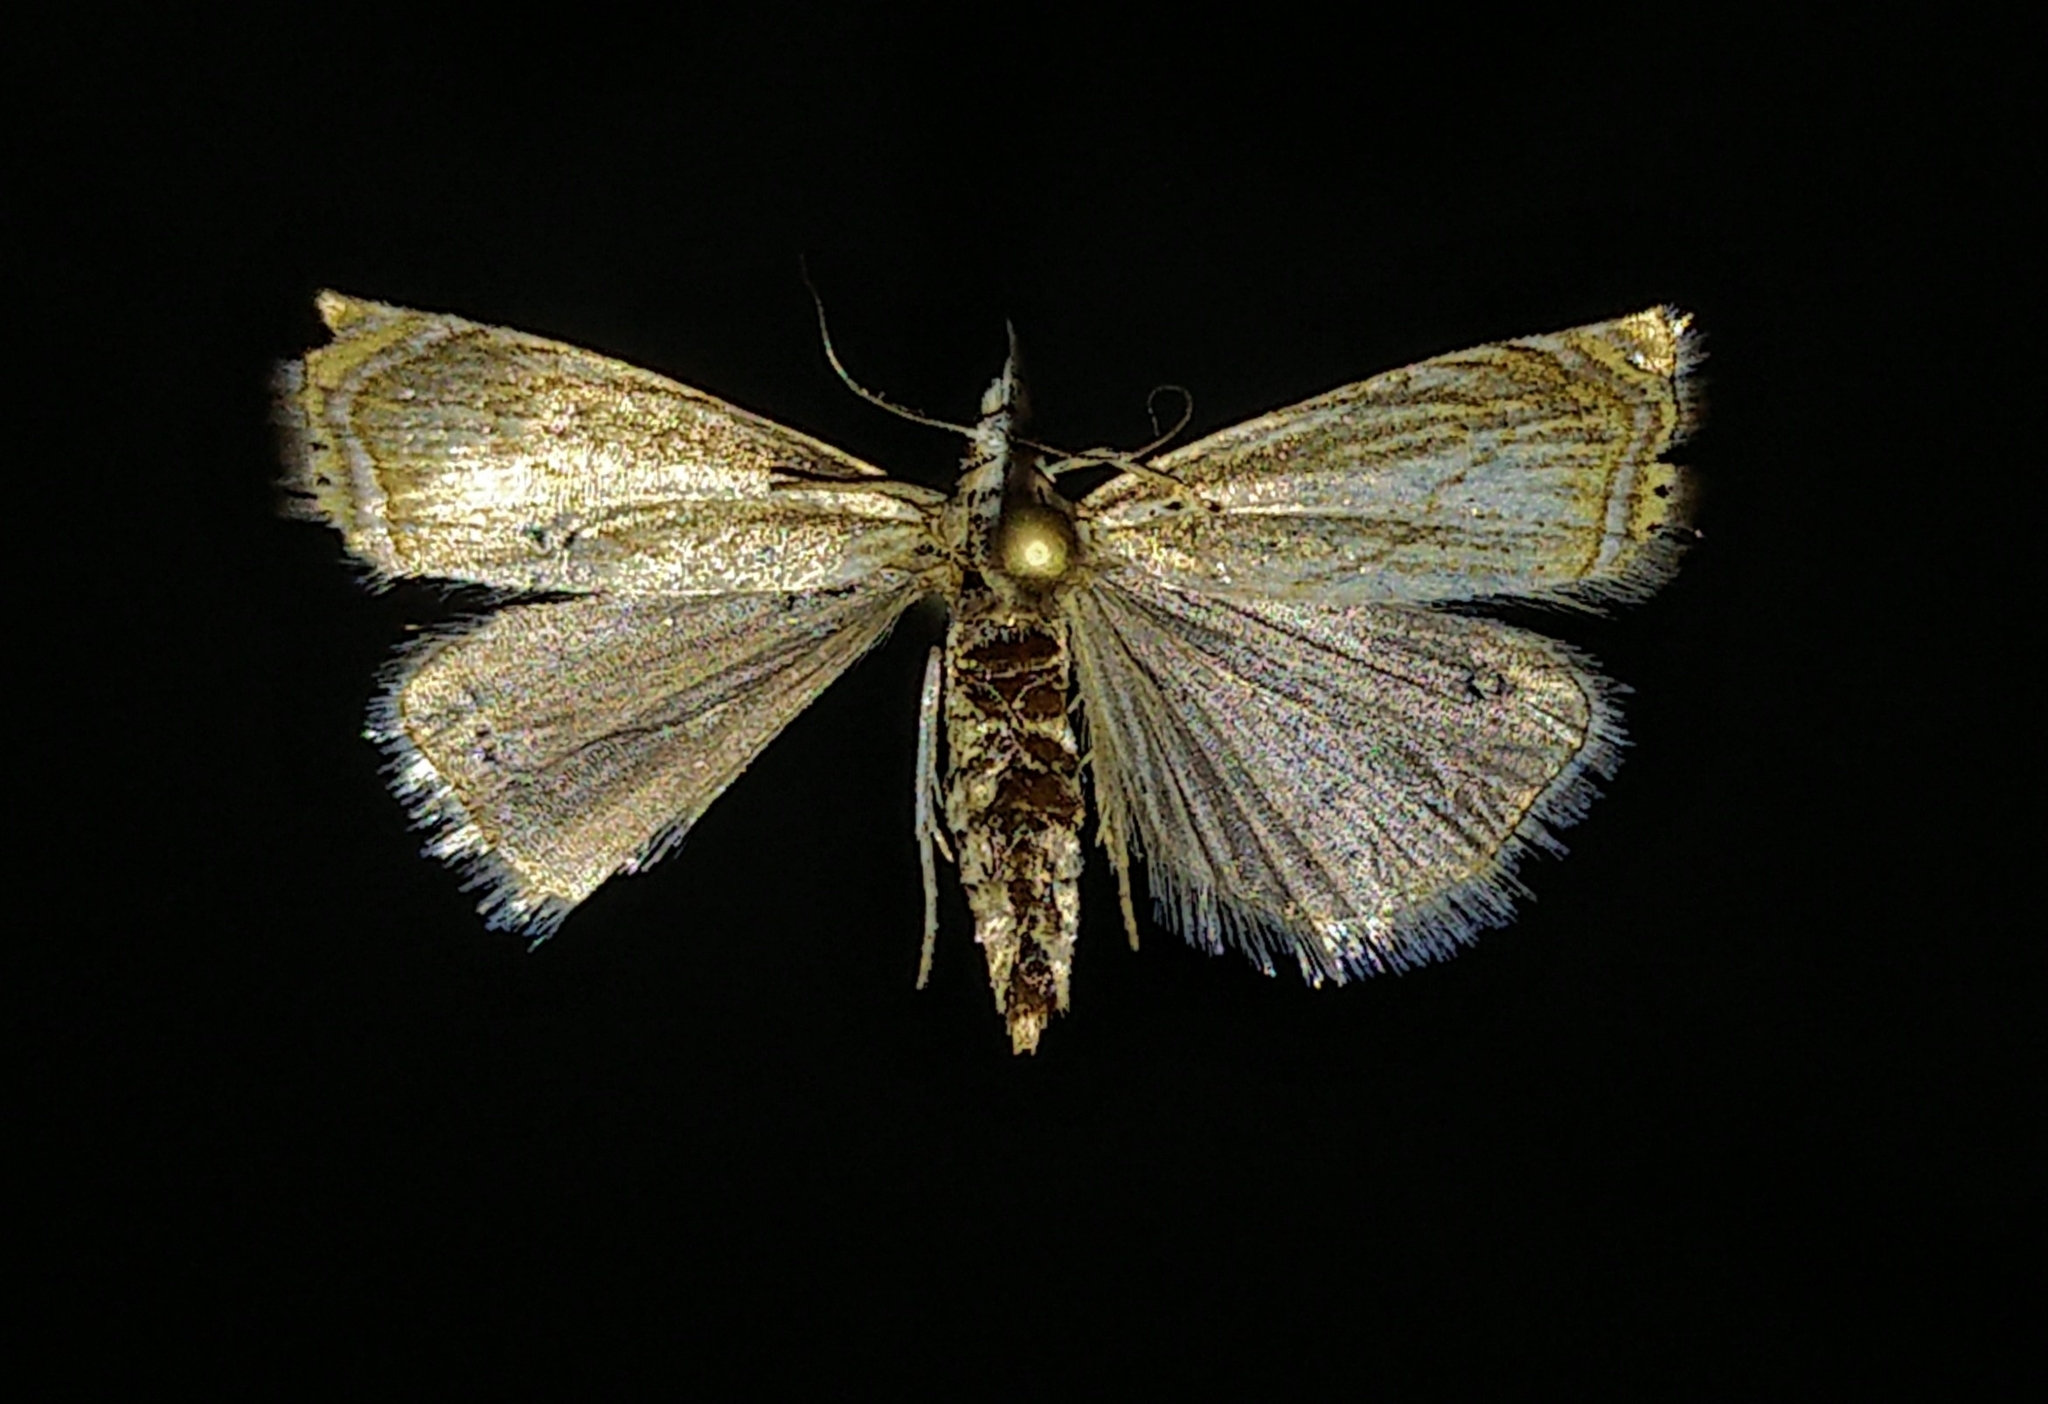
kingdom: Animalia
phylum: Arthropoda
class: Insecta
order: Lepidoptera
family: Crambidae
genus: Chrysoteuchia
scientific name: Chrysoteuchia topiarius
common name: Topiary grass-veneer
